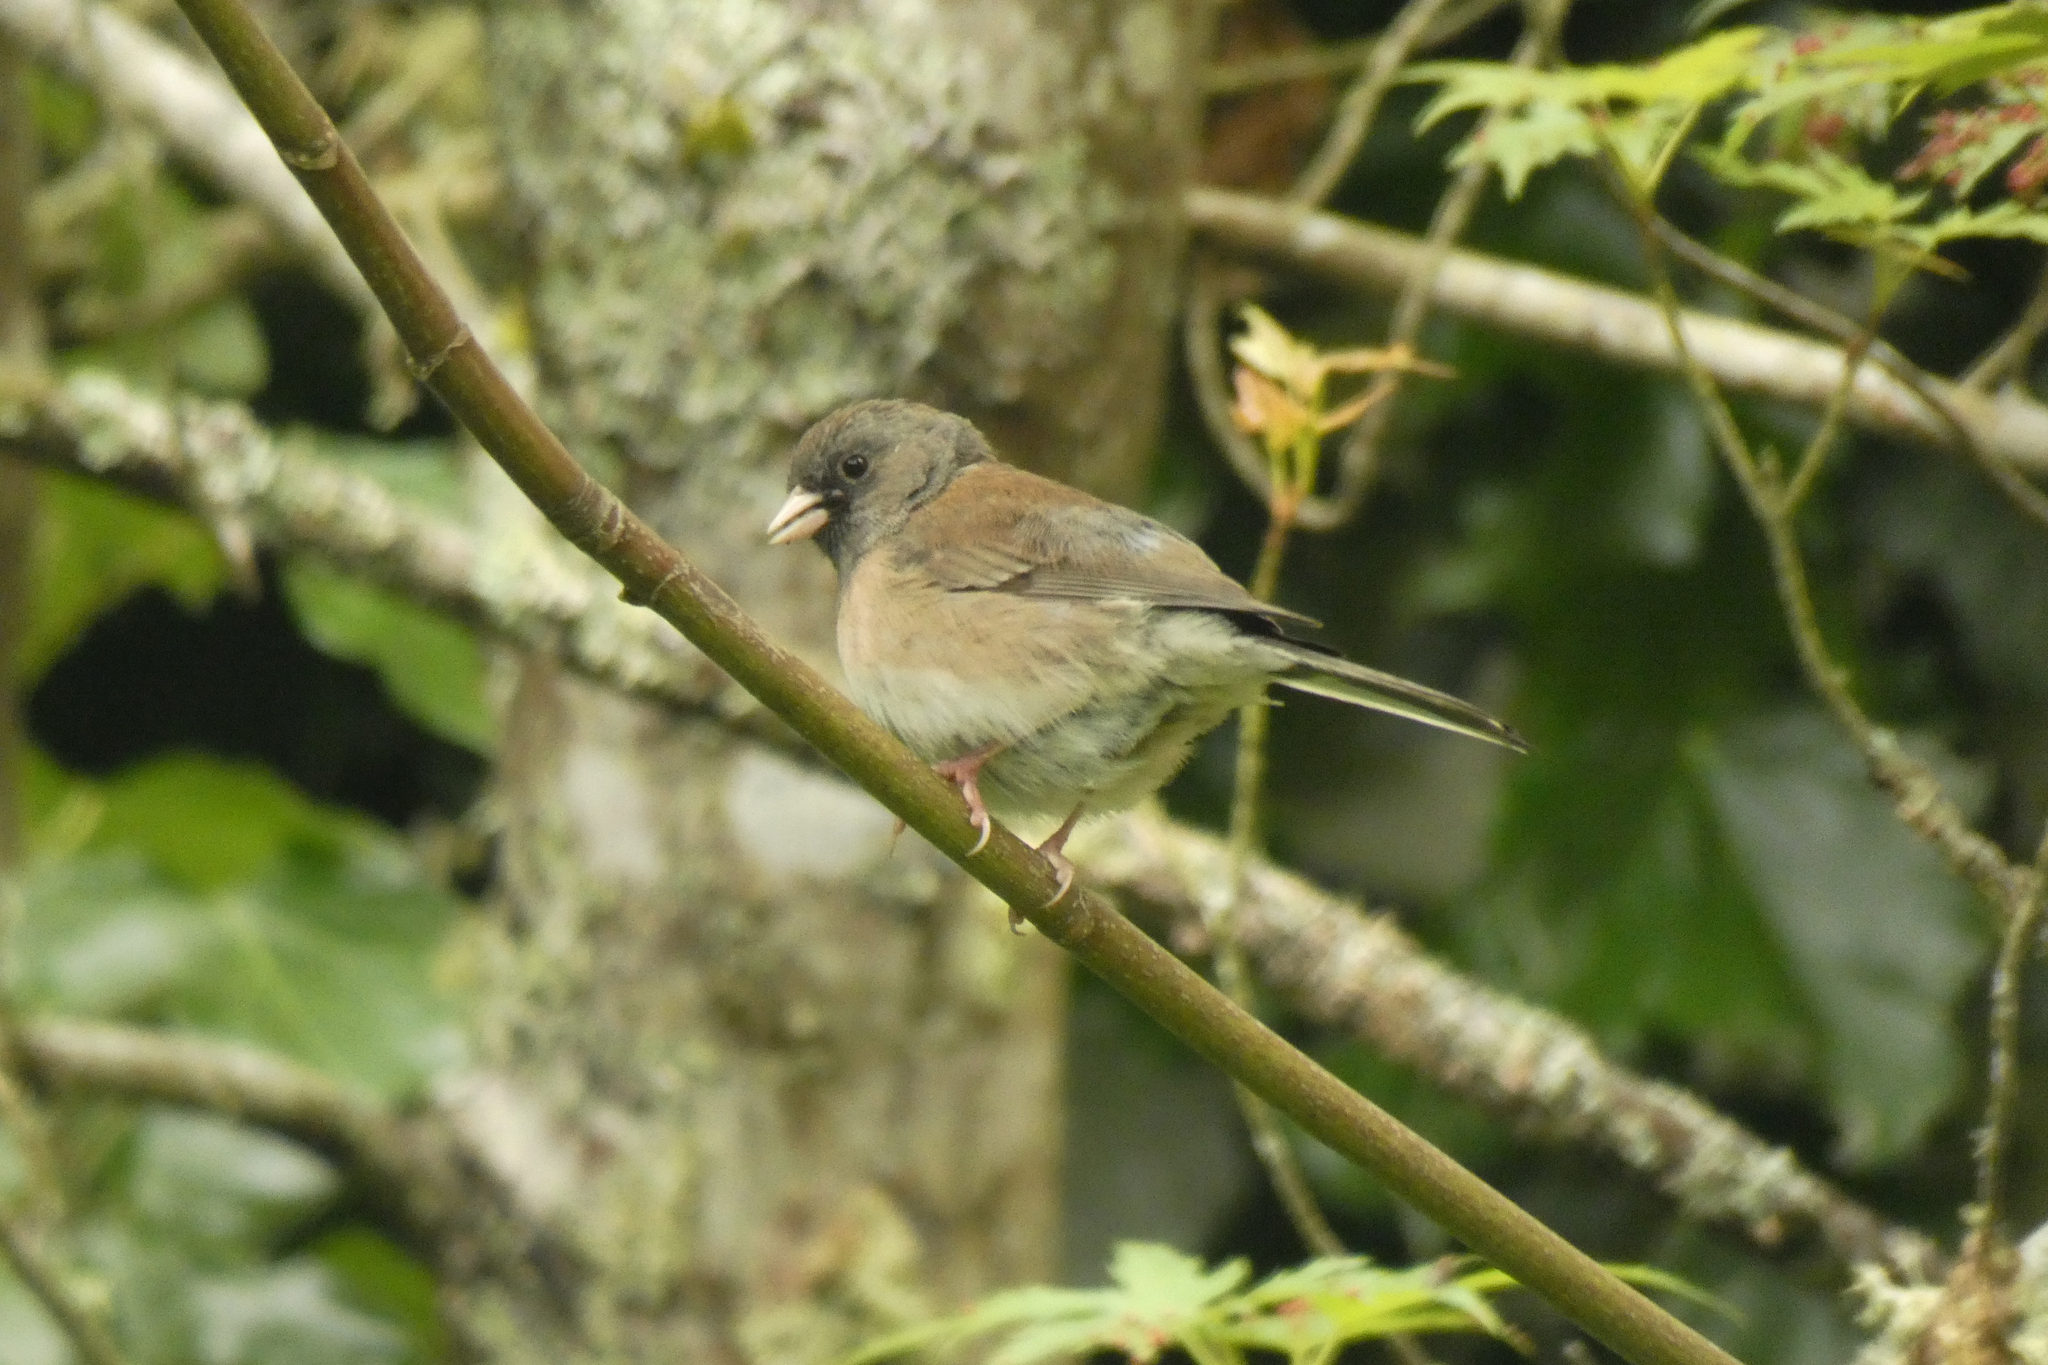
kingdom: Animalia
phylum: Chordata
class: Aves
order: Passeriformes
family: Passerellidae
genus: Junco
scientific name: Junco hyemalis
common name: Dark-eyed junco
